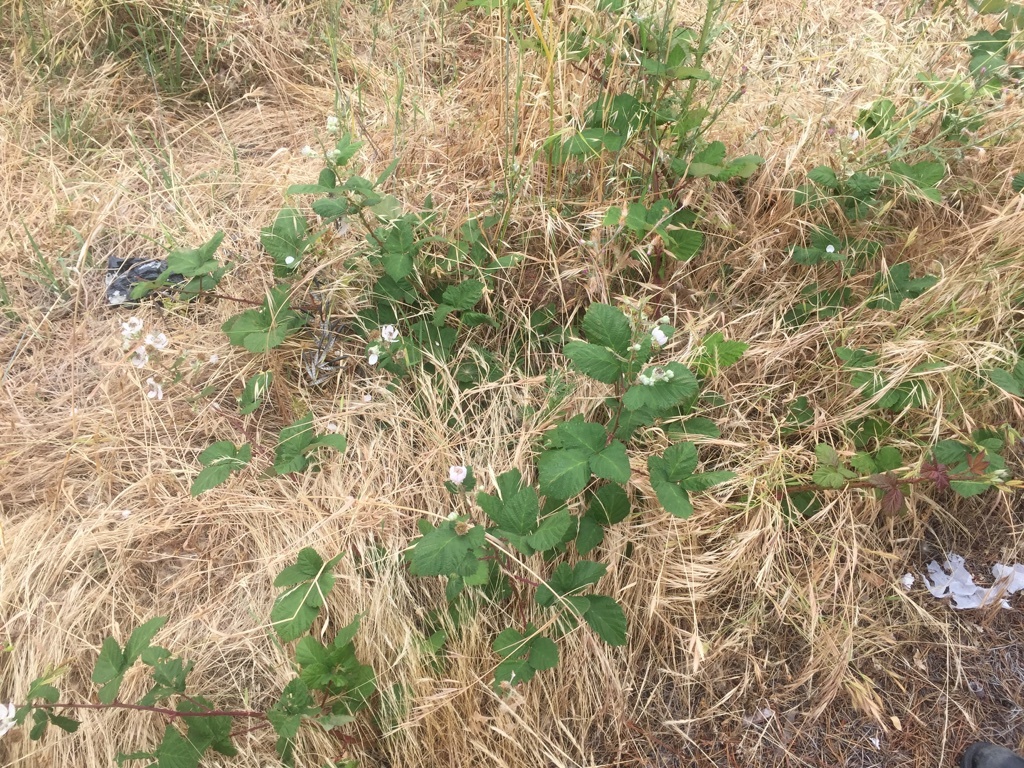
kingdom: Plantae
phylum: Tracheophyta
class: Magnoliopsida
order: Rosales
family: Rosaceae
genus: Rubus
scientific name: Rubus armeniacus
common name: Himalayan blackberry
